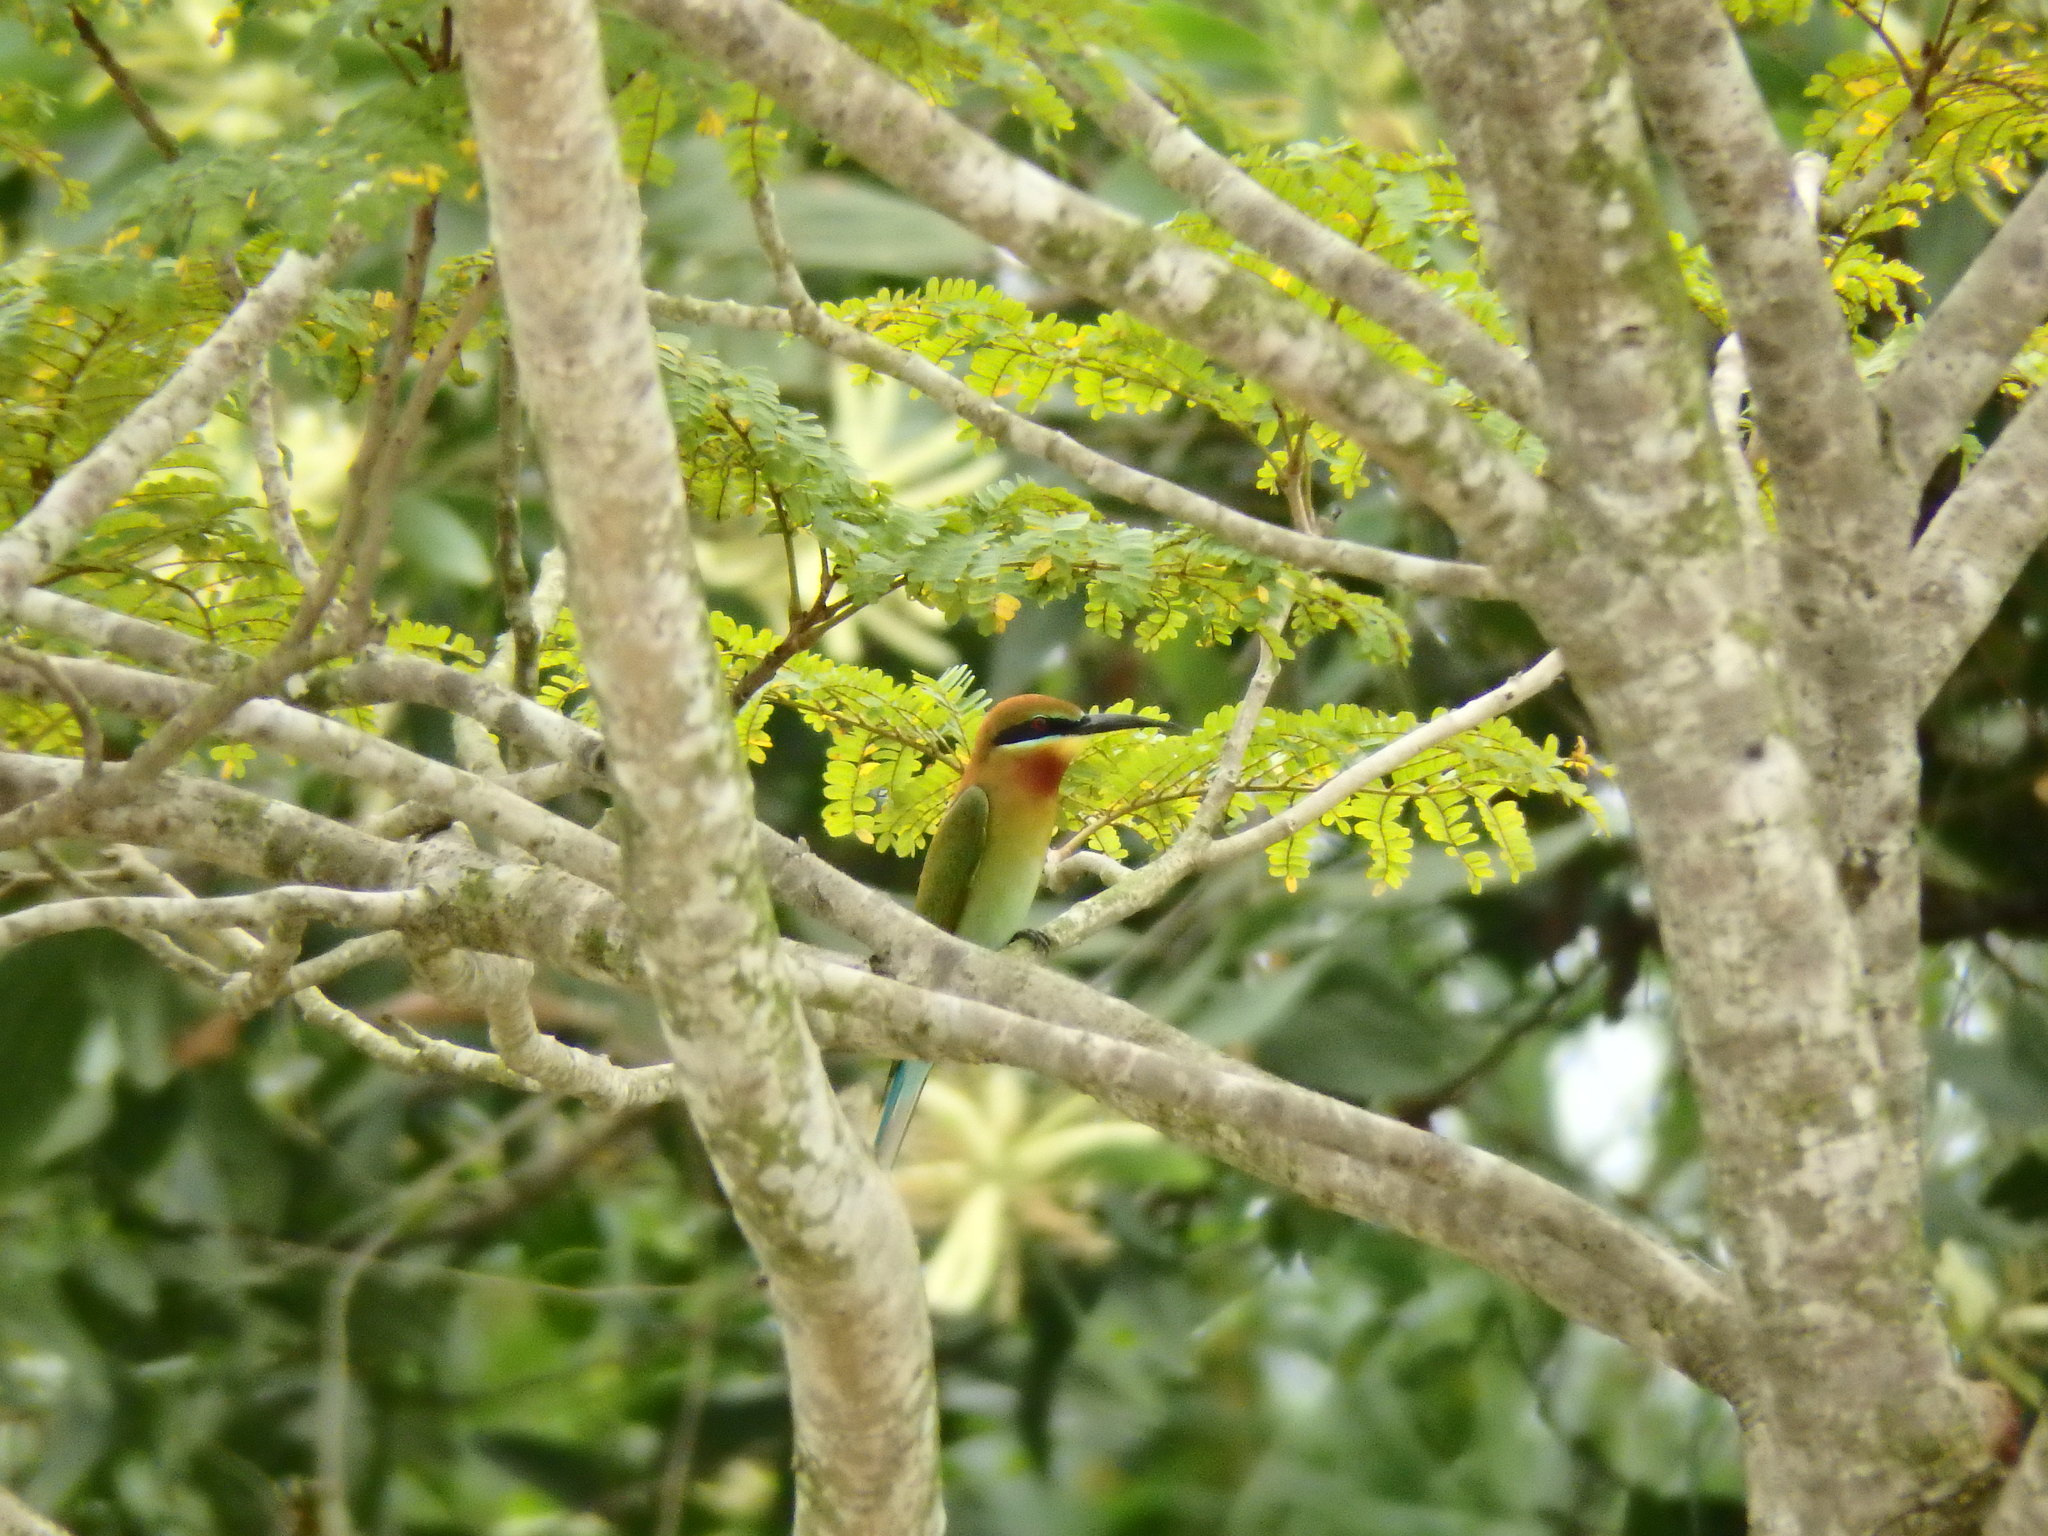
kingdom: Animalia
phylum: Chordata
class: Aves
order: Coraciiformes
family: Meropidae
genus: Merops
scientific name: Merops philippinus
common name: Blue-tailed bee-eater
